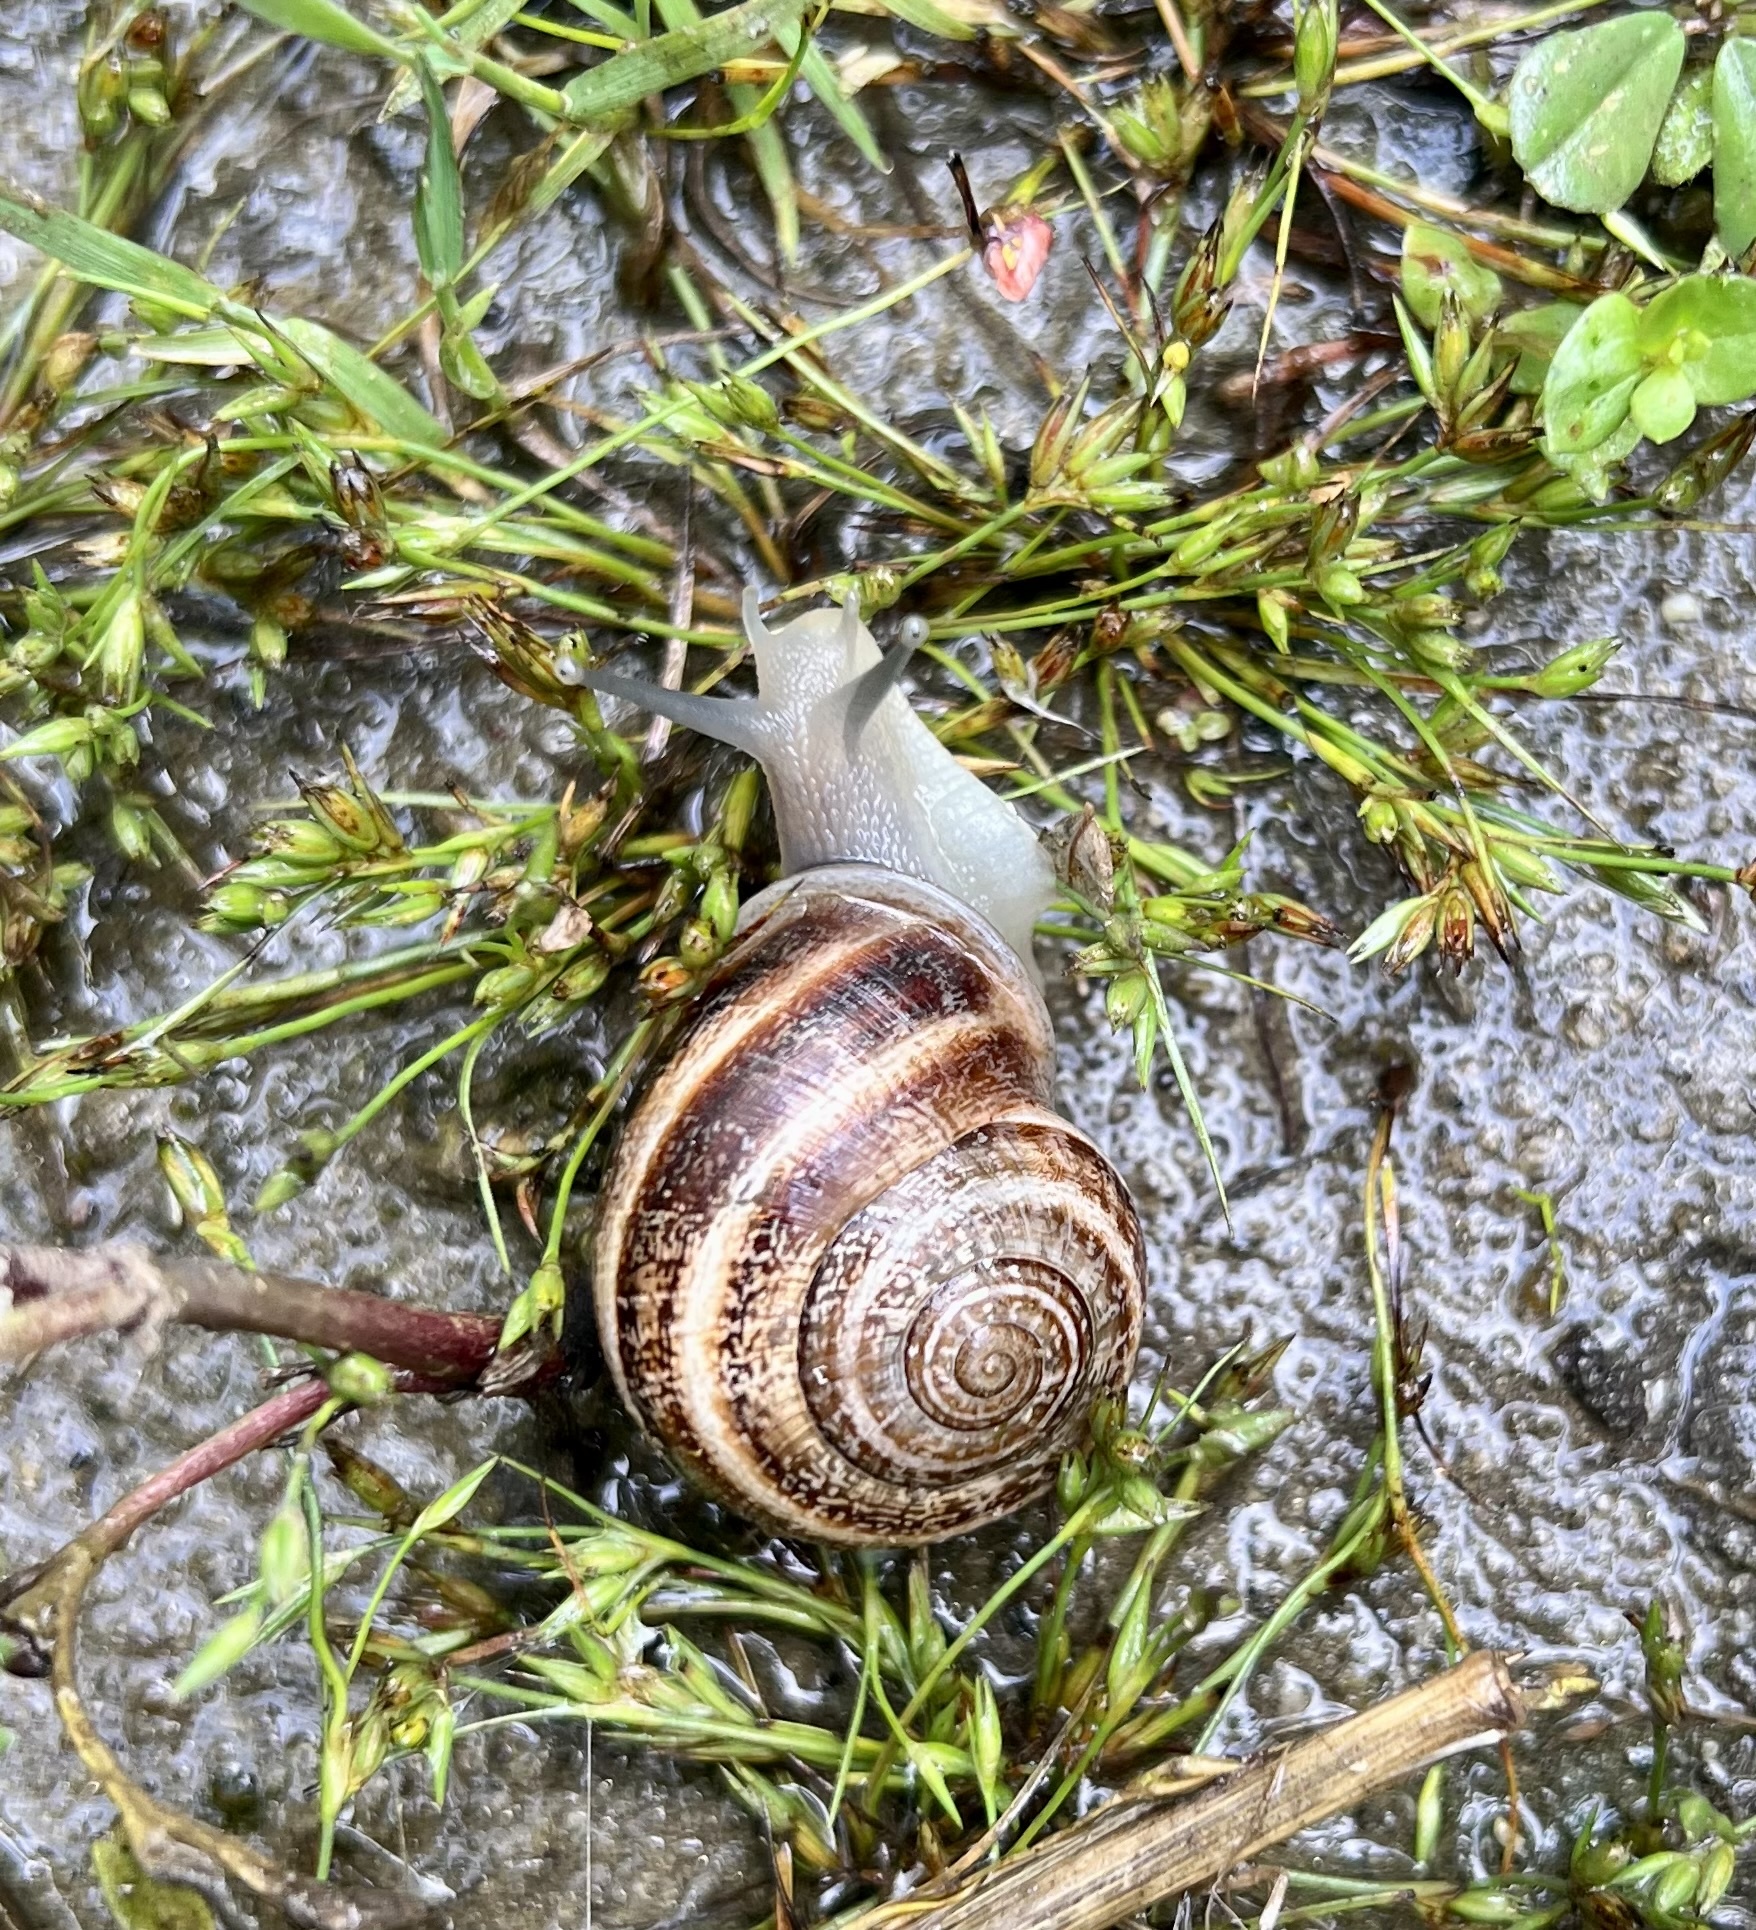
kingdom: Animalia
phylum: Mollusca
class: Gastropoda
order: Stylommatophora
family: Helicidae
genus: Otala
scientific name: Otala lactea
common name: Milk snail
